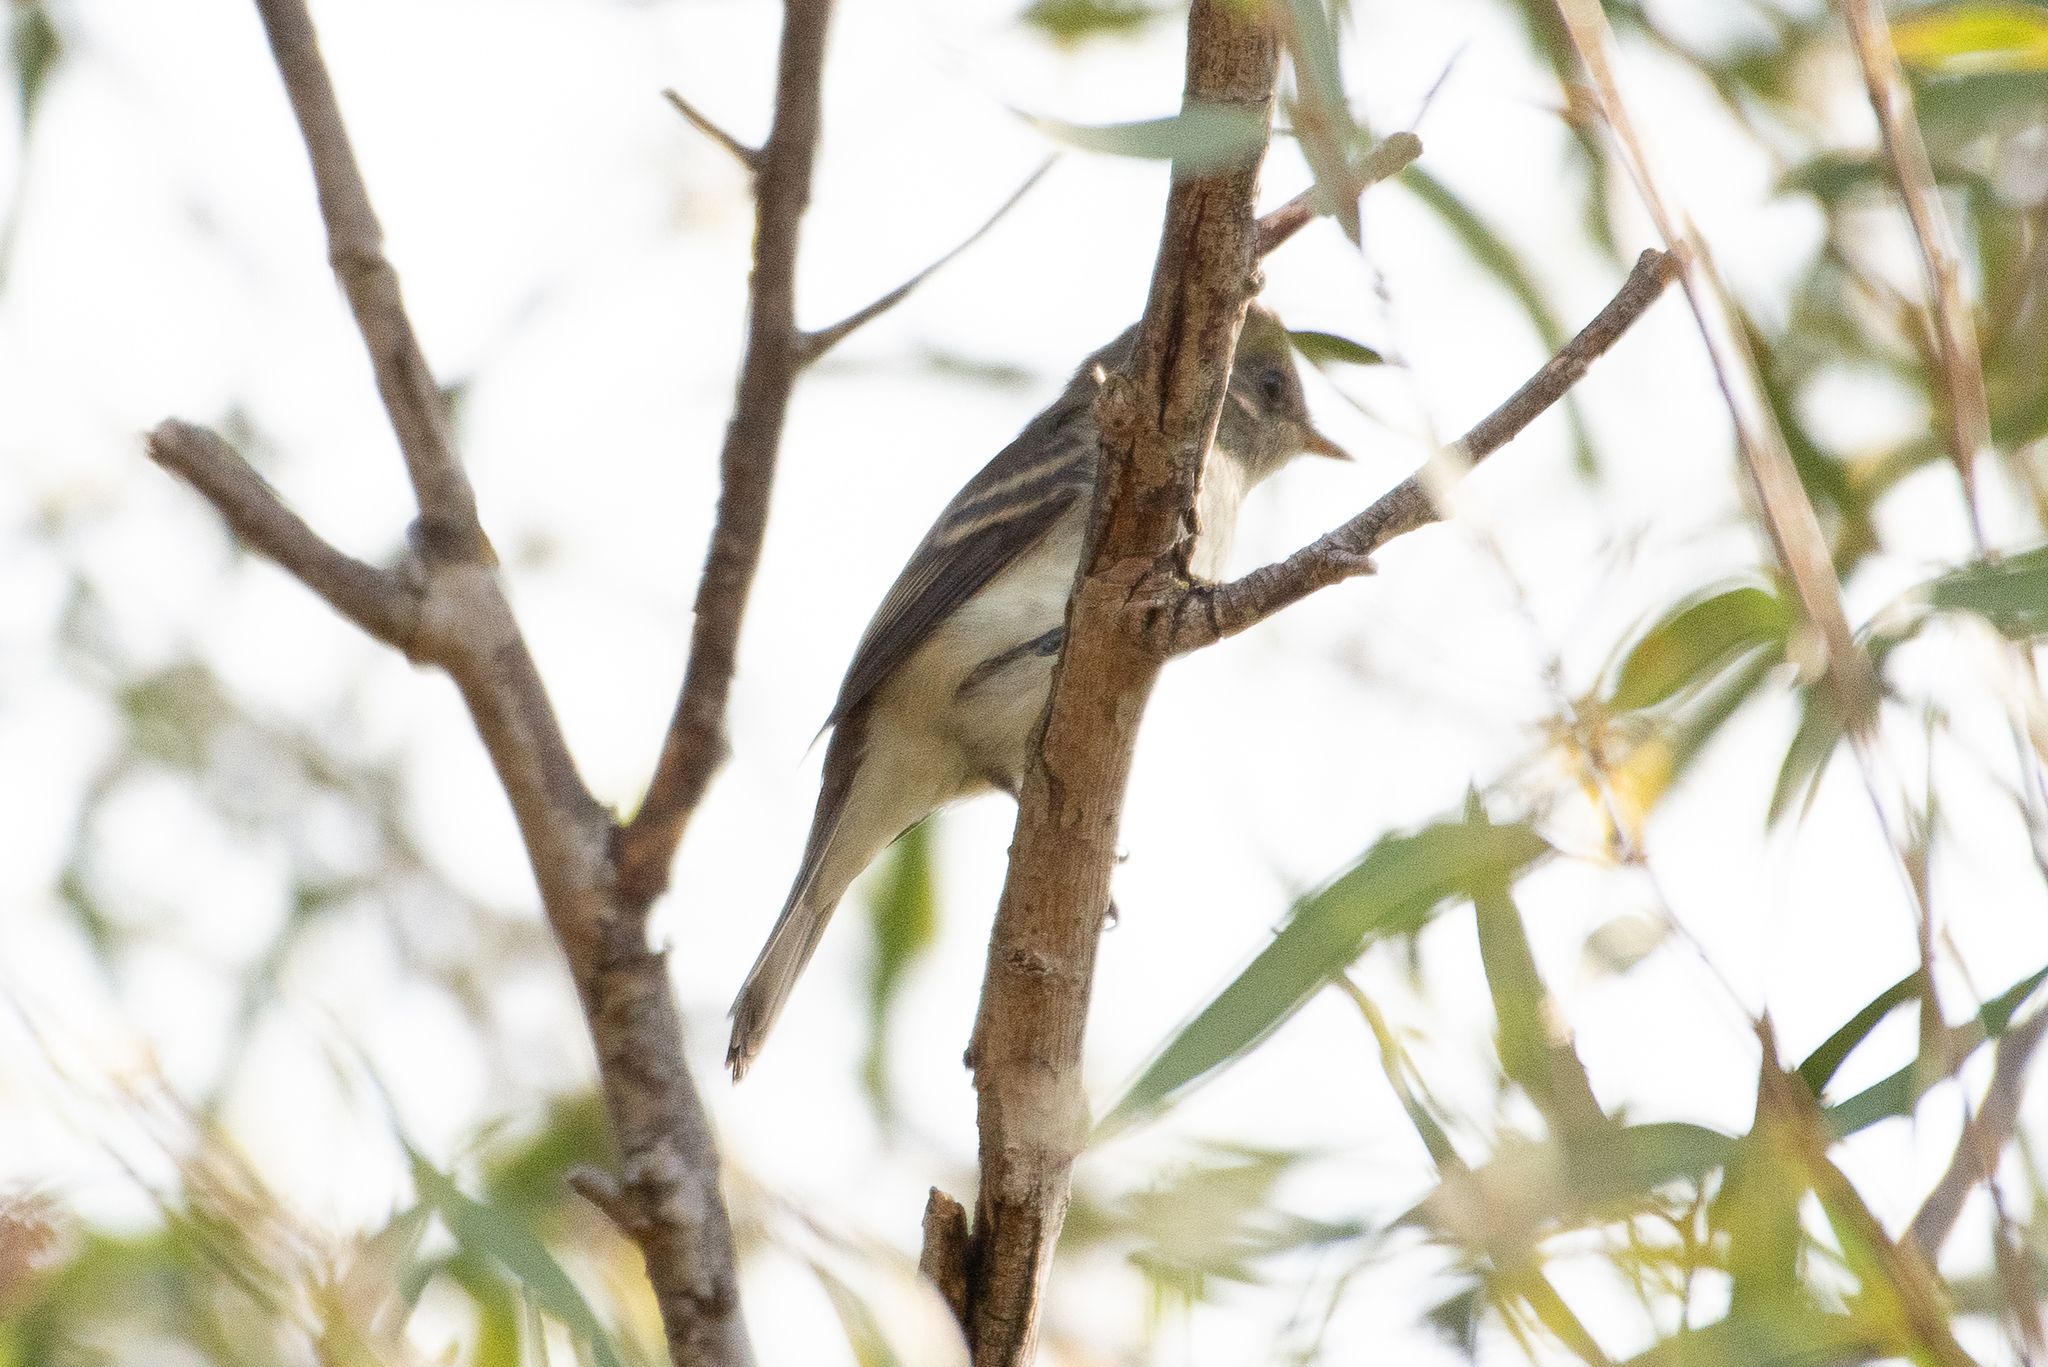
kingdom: Animalia
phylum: Chordata
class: Aves
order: Passeriformes
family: Tyrannidae
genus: Empidonax
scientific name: Empidonax traillii
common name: Willow flycatcher
